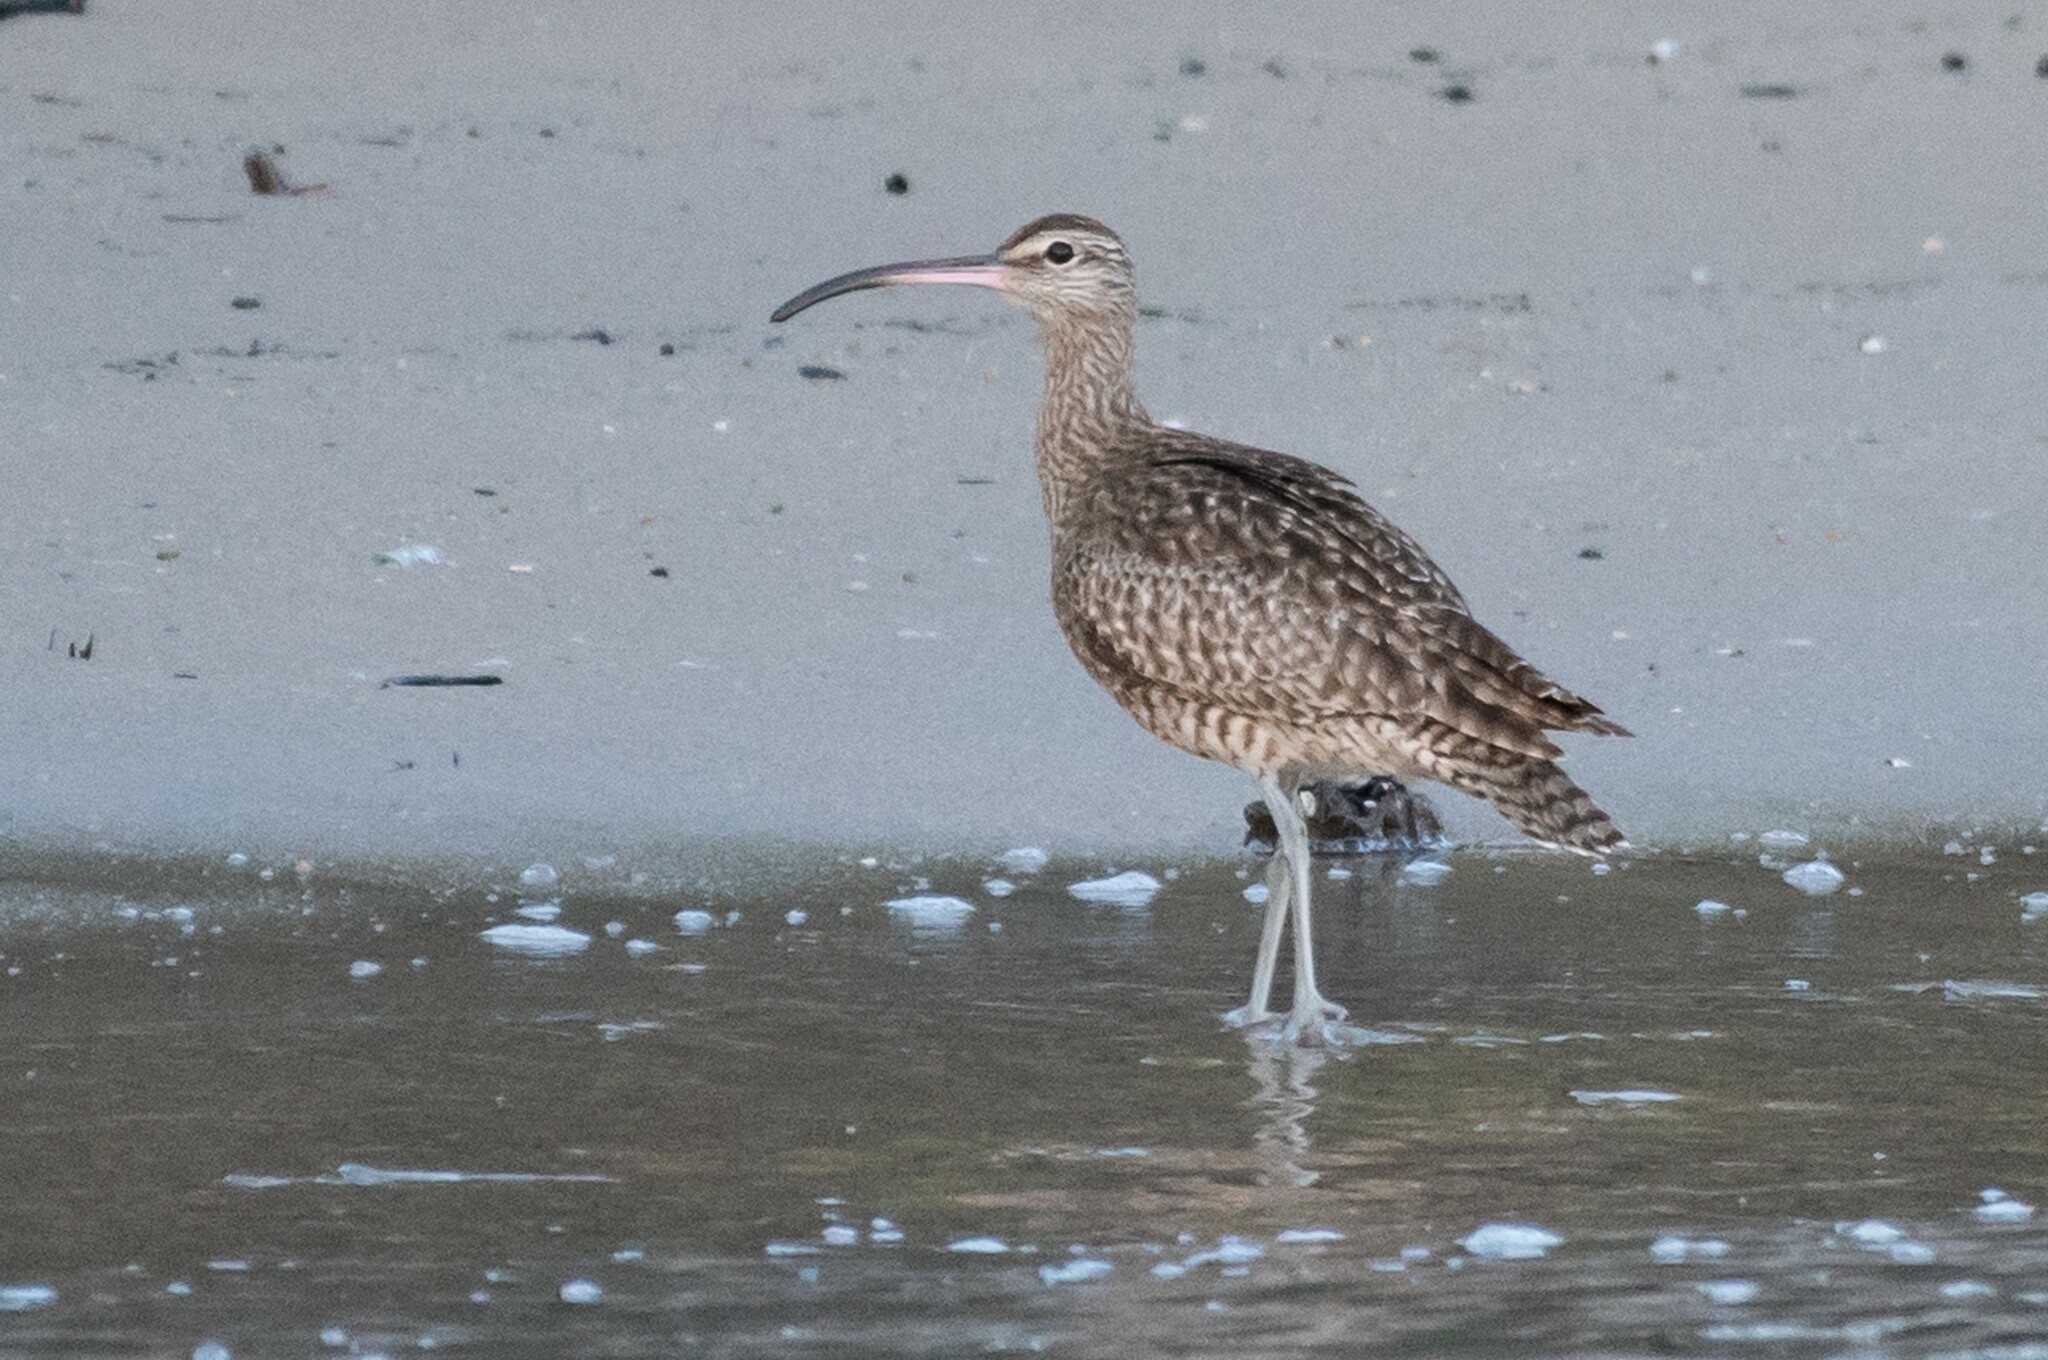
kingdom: Animalia
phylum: Chordata
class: Aves
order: Charadriiformes
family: Scolopacidae
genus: Numenius
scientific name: Numenius phaeopus
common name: Whimbrel
